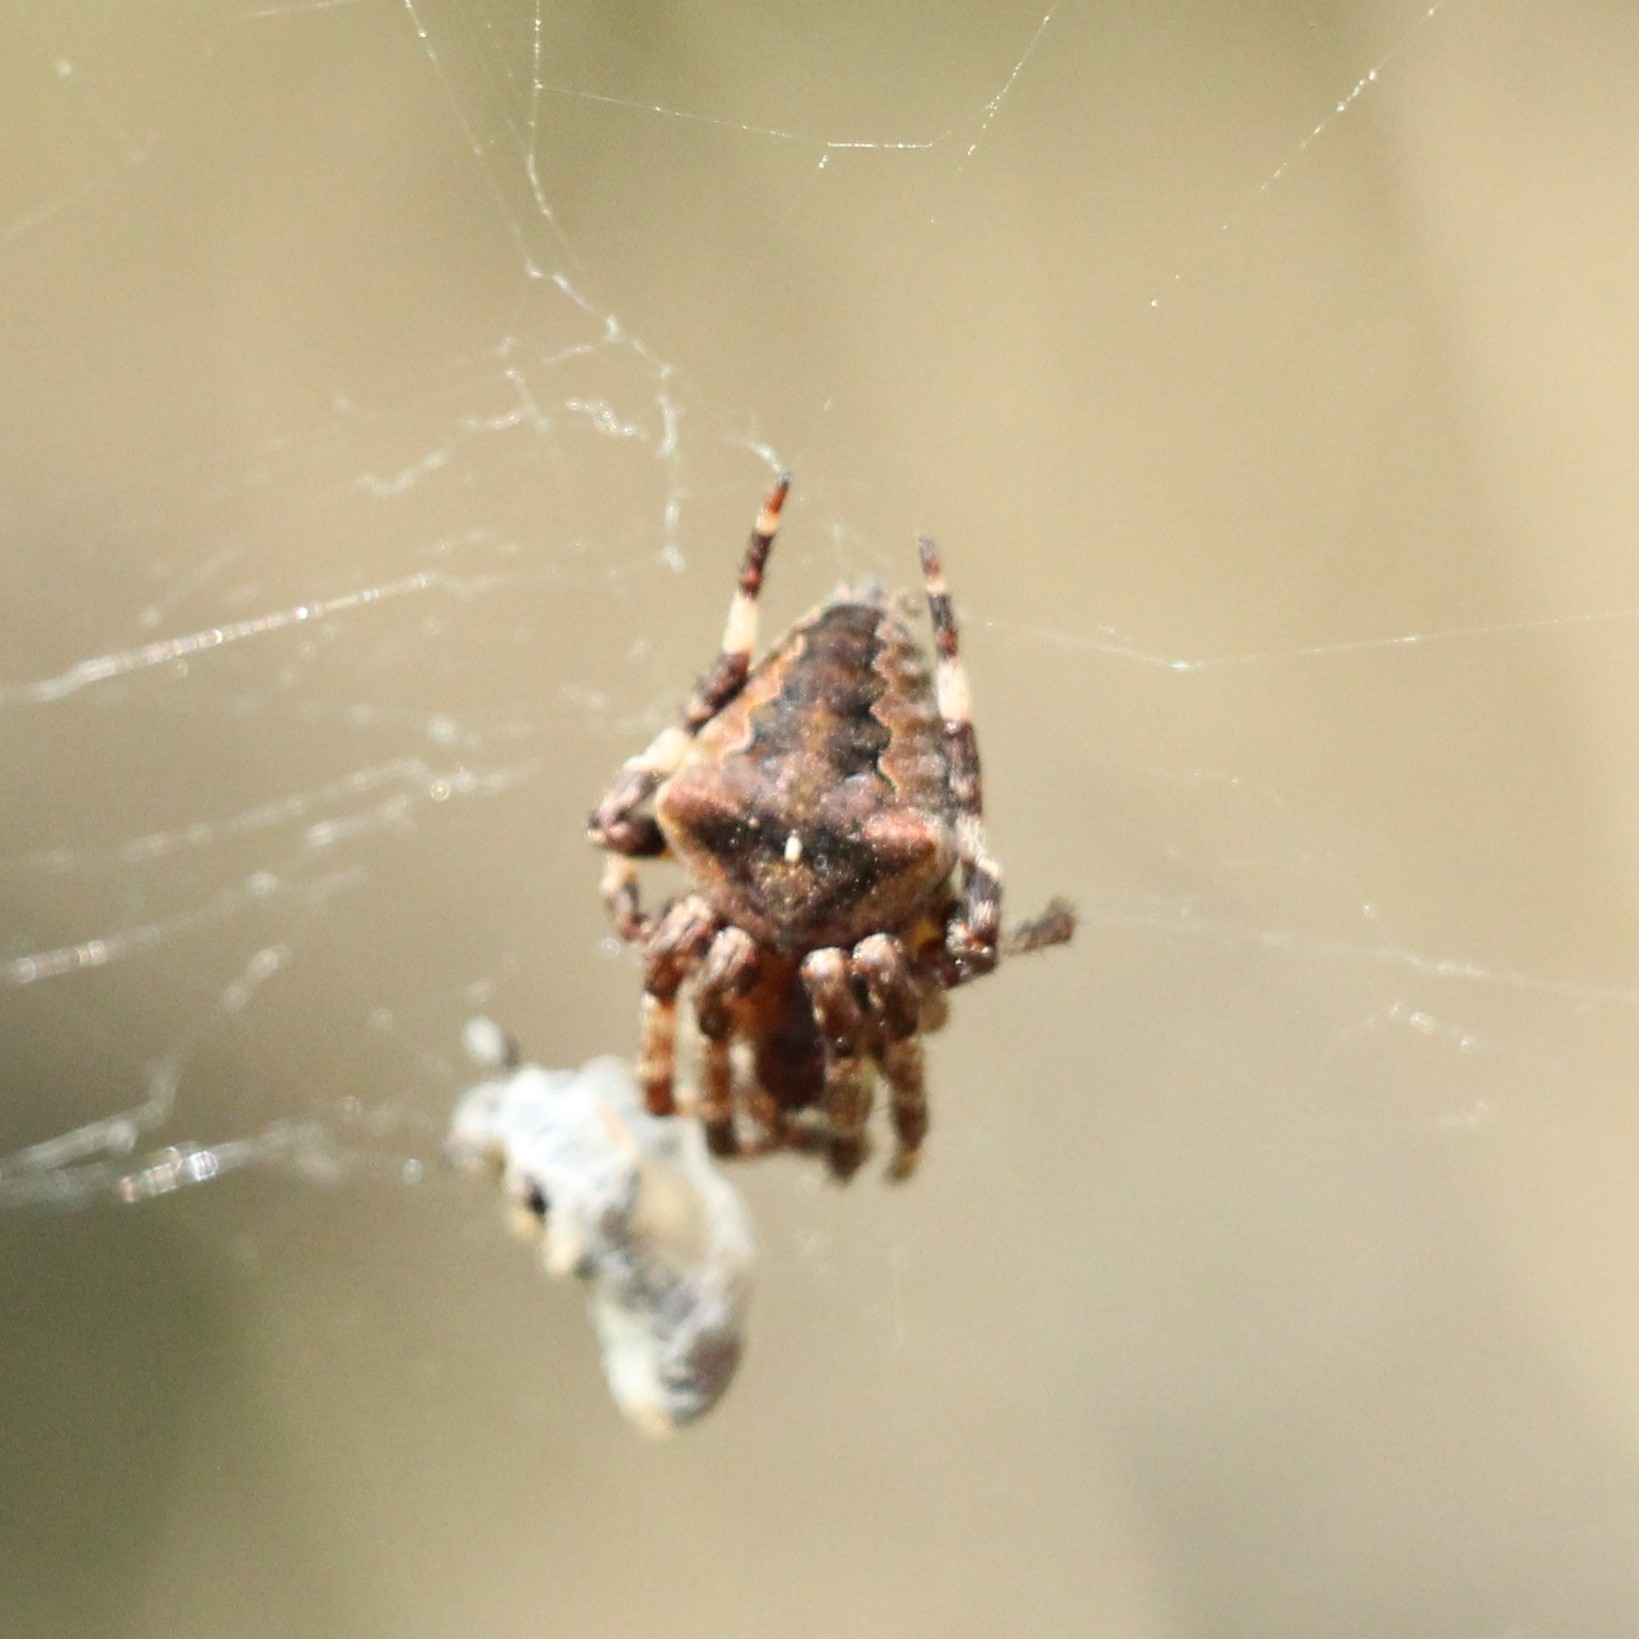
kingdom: Animalia
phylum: Arthropoda
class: Arachnida
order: Araneae
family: Araneidae
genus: Araneus
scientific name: Araneus angulatus
